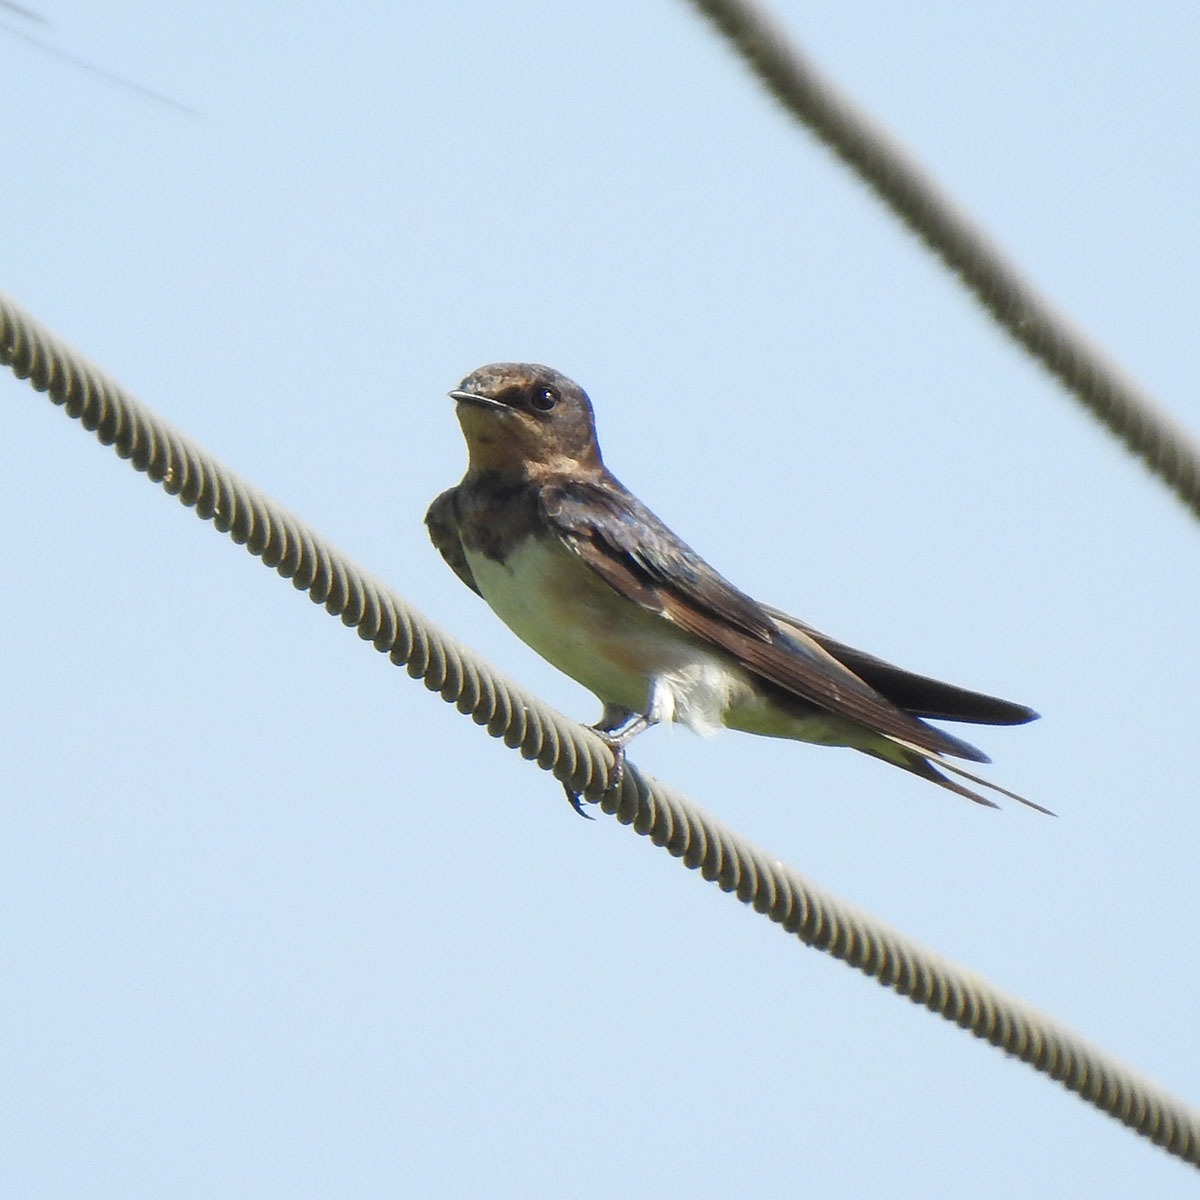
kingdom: Animalia
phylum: Chordata
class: Aves
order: Passeriformes
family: Hirundinidae
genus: Hirundo
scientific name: Hirundo rustica
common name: Barn swallow
